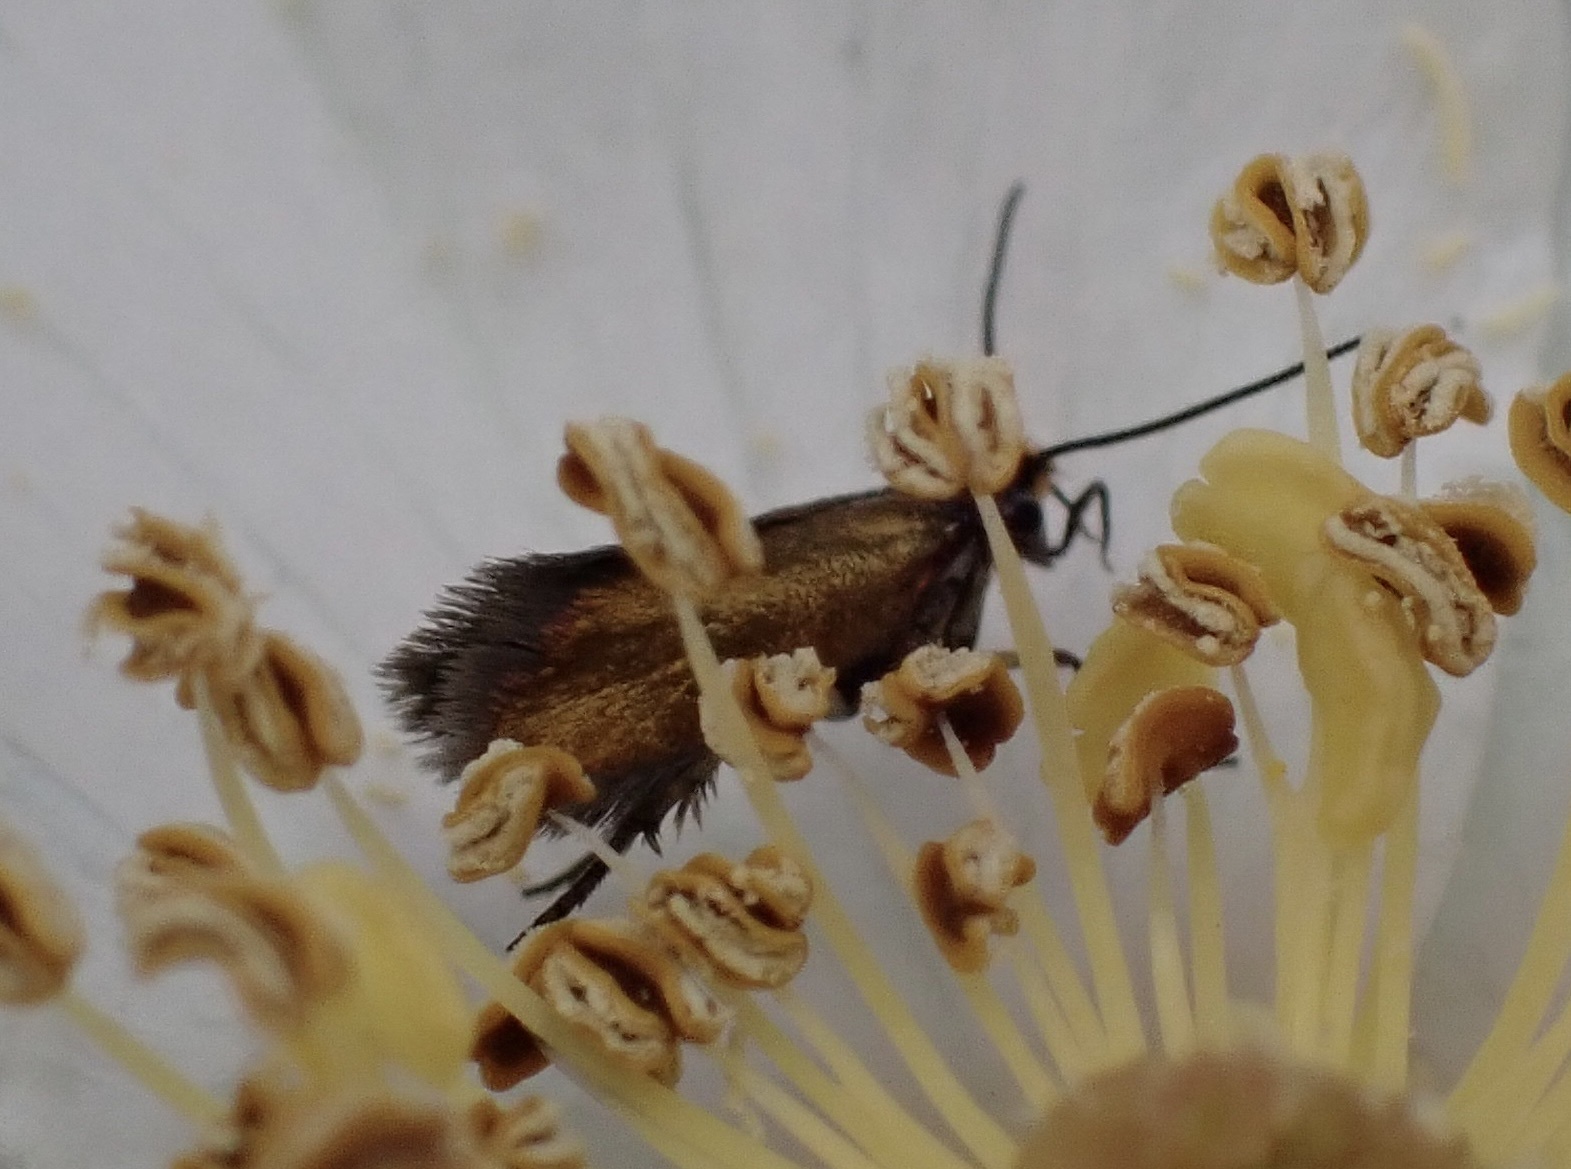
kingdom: Animalia
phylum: Arthropoda
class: Insecta
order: Lepidoptera
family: Micropterigidae
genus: Micropterix
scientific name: Micropterix calthella
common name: Plain gold
